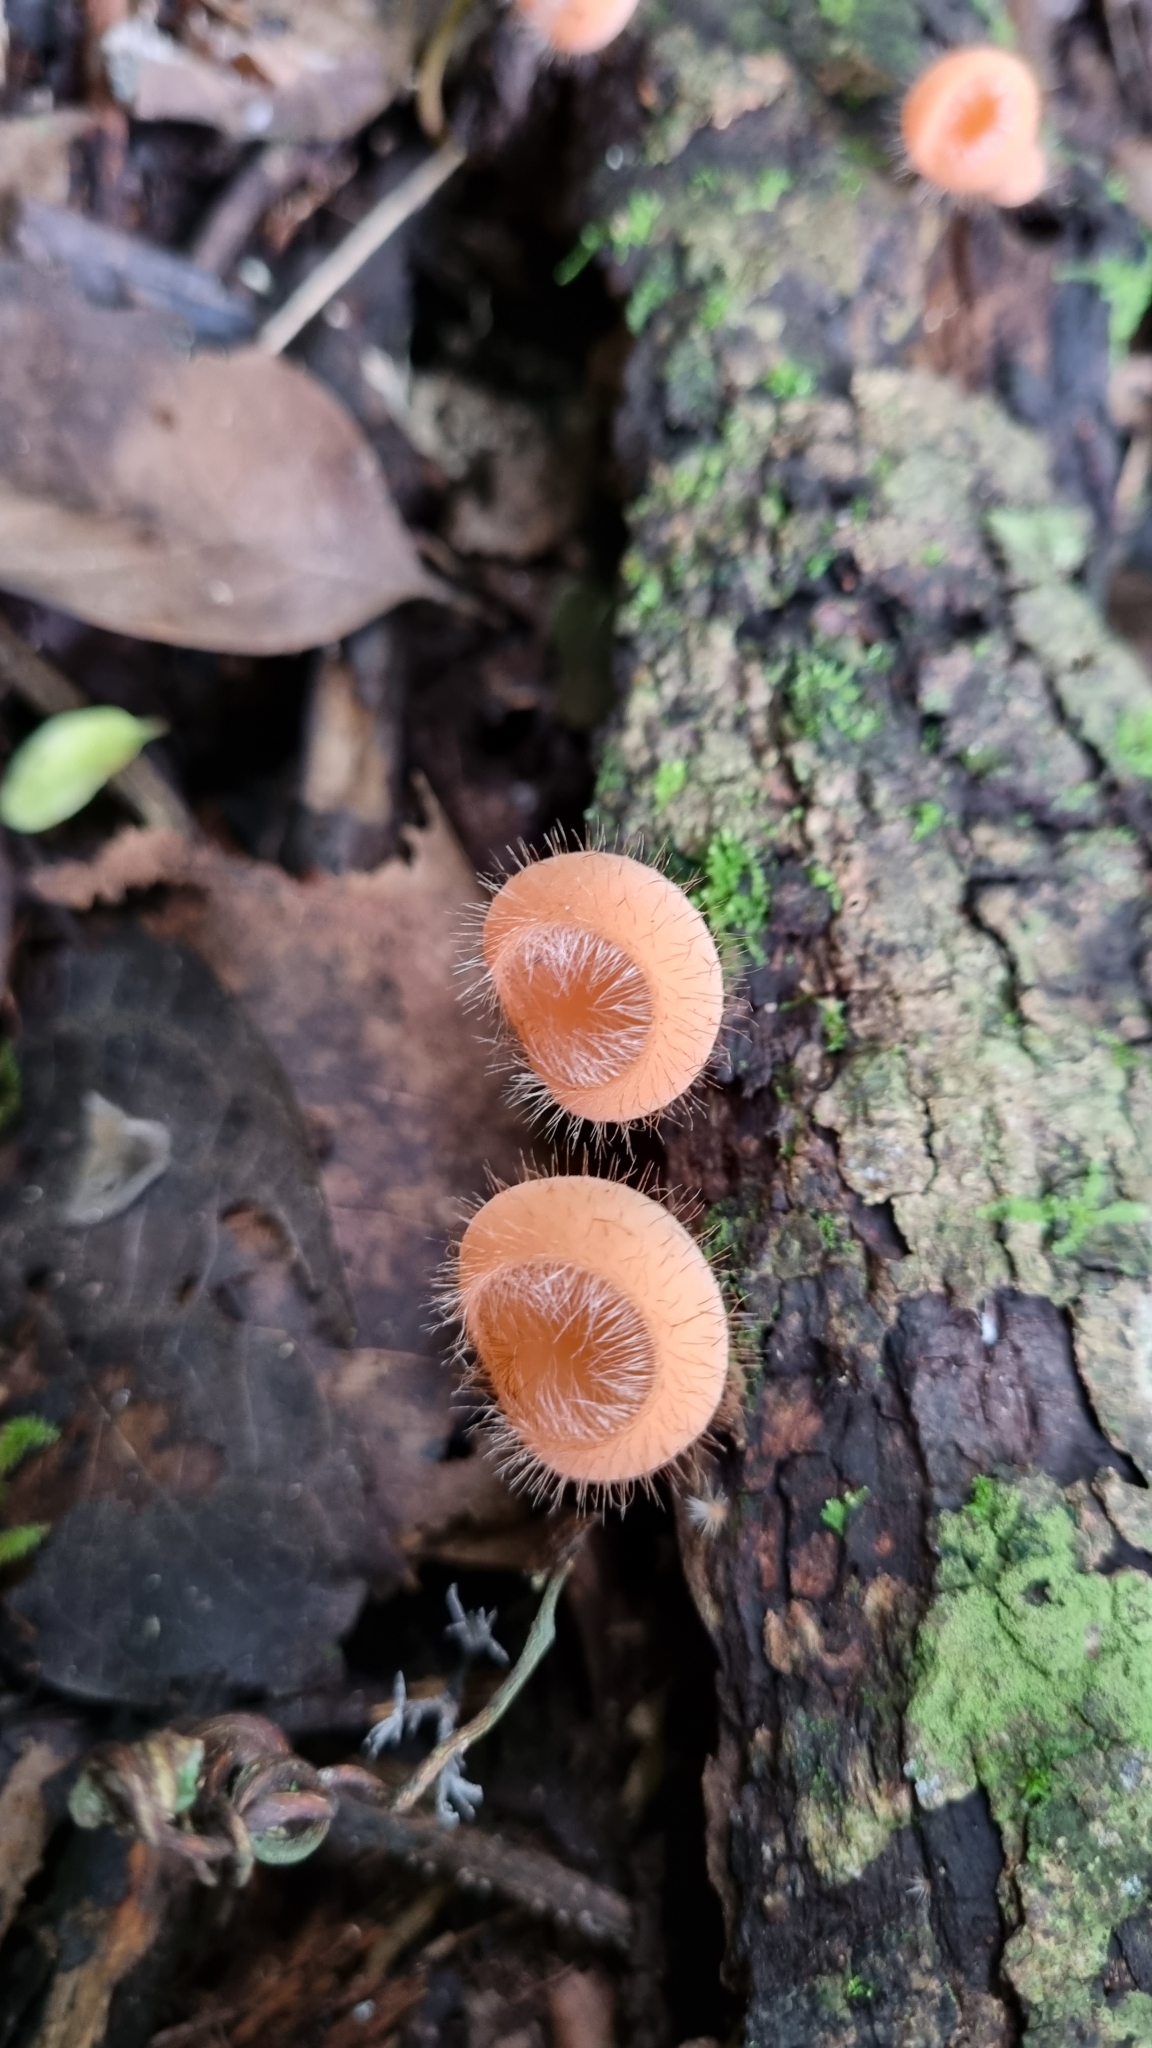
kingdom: Fungi
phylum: Ascomycota
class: Pezizomycetes
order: Pezizales
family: Sarcoscyphaceae
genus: Cookeina
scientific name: Cookeina tricholoma
